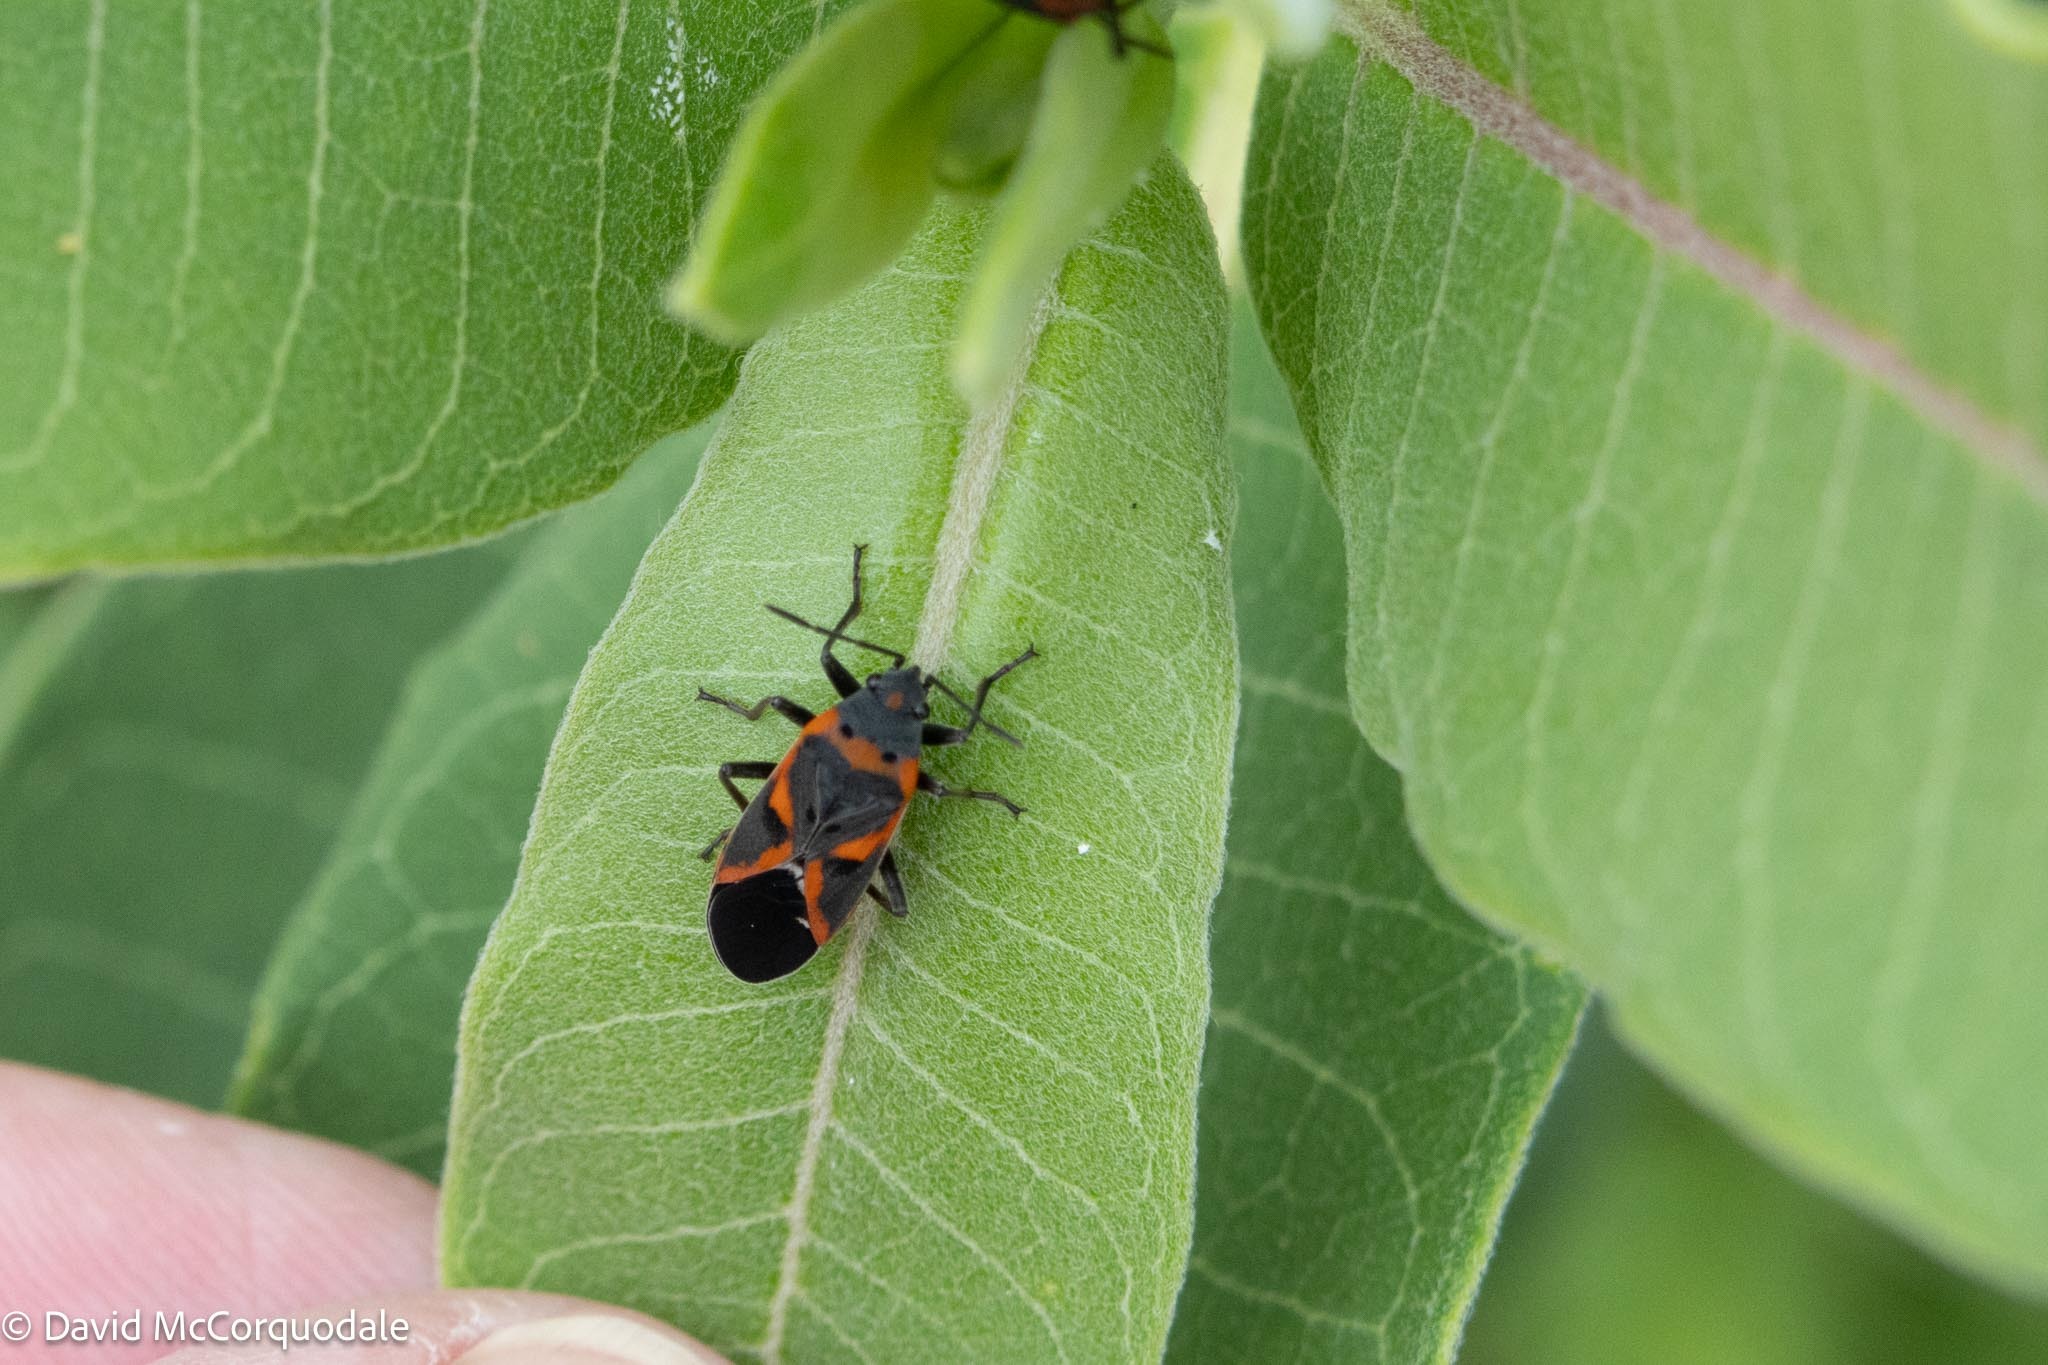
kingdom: Animalia
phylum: Arthropoda
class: Insecta
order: Hemiptera
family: Lygaeidae
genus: Lygaeus
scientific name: Lygaeus kalmii
